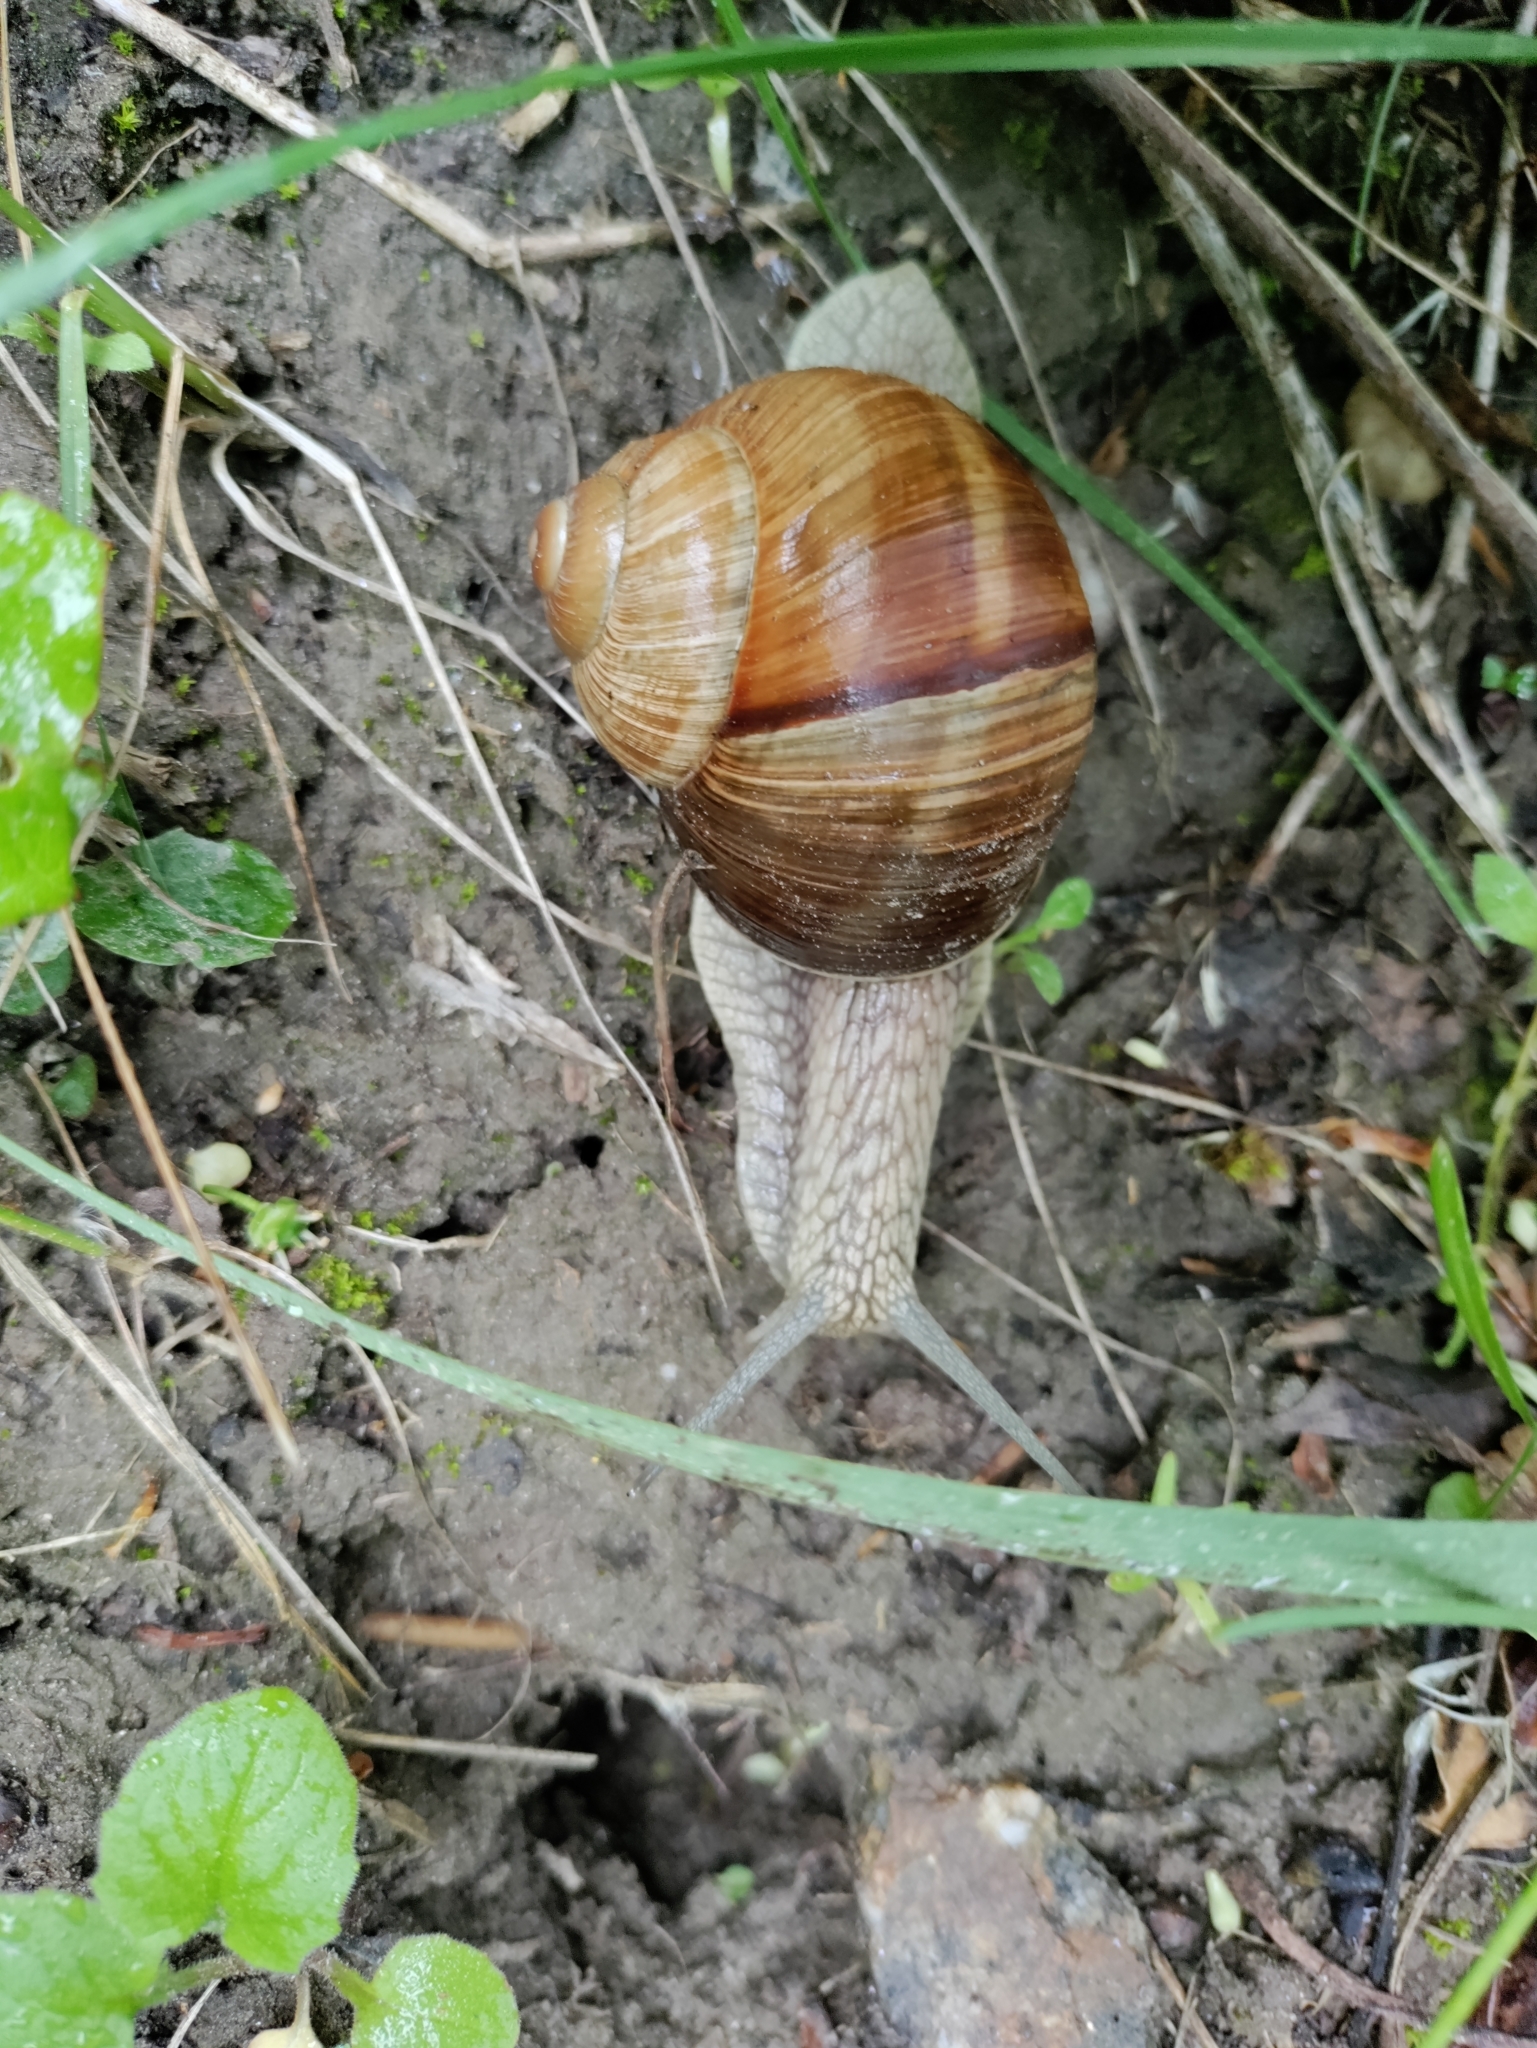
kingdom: Animalia
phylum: Mollusca
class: Gastropoda
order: Stylommatophora
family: Helicidae
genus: Helix
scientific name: Helix pomatia
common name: Roman snail
